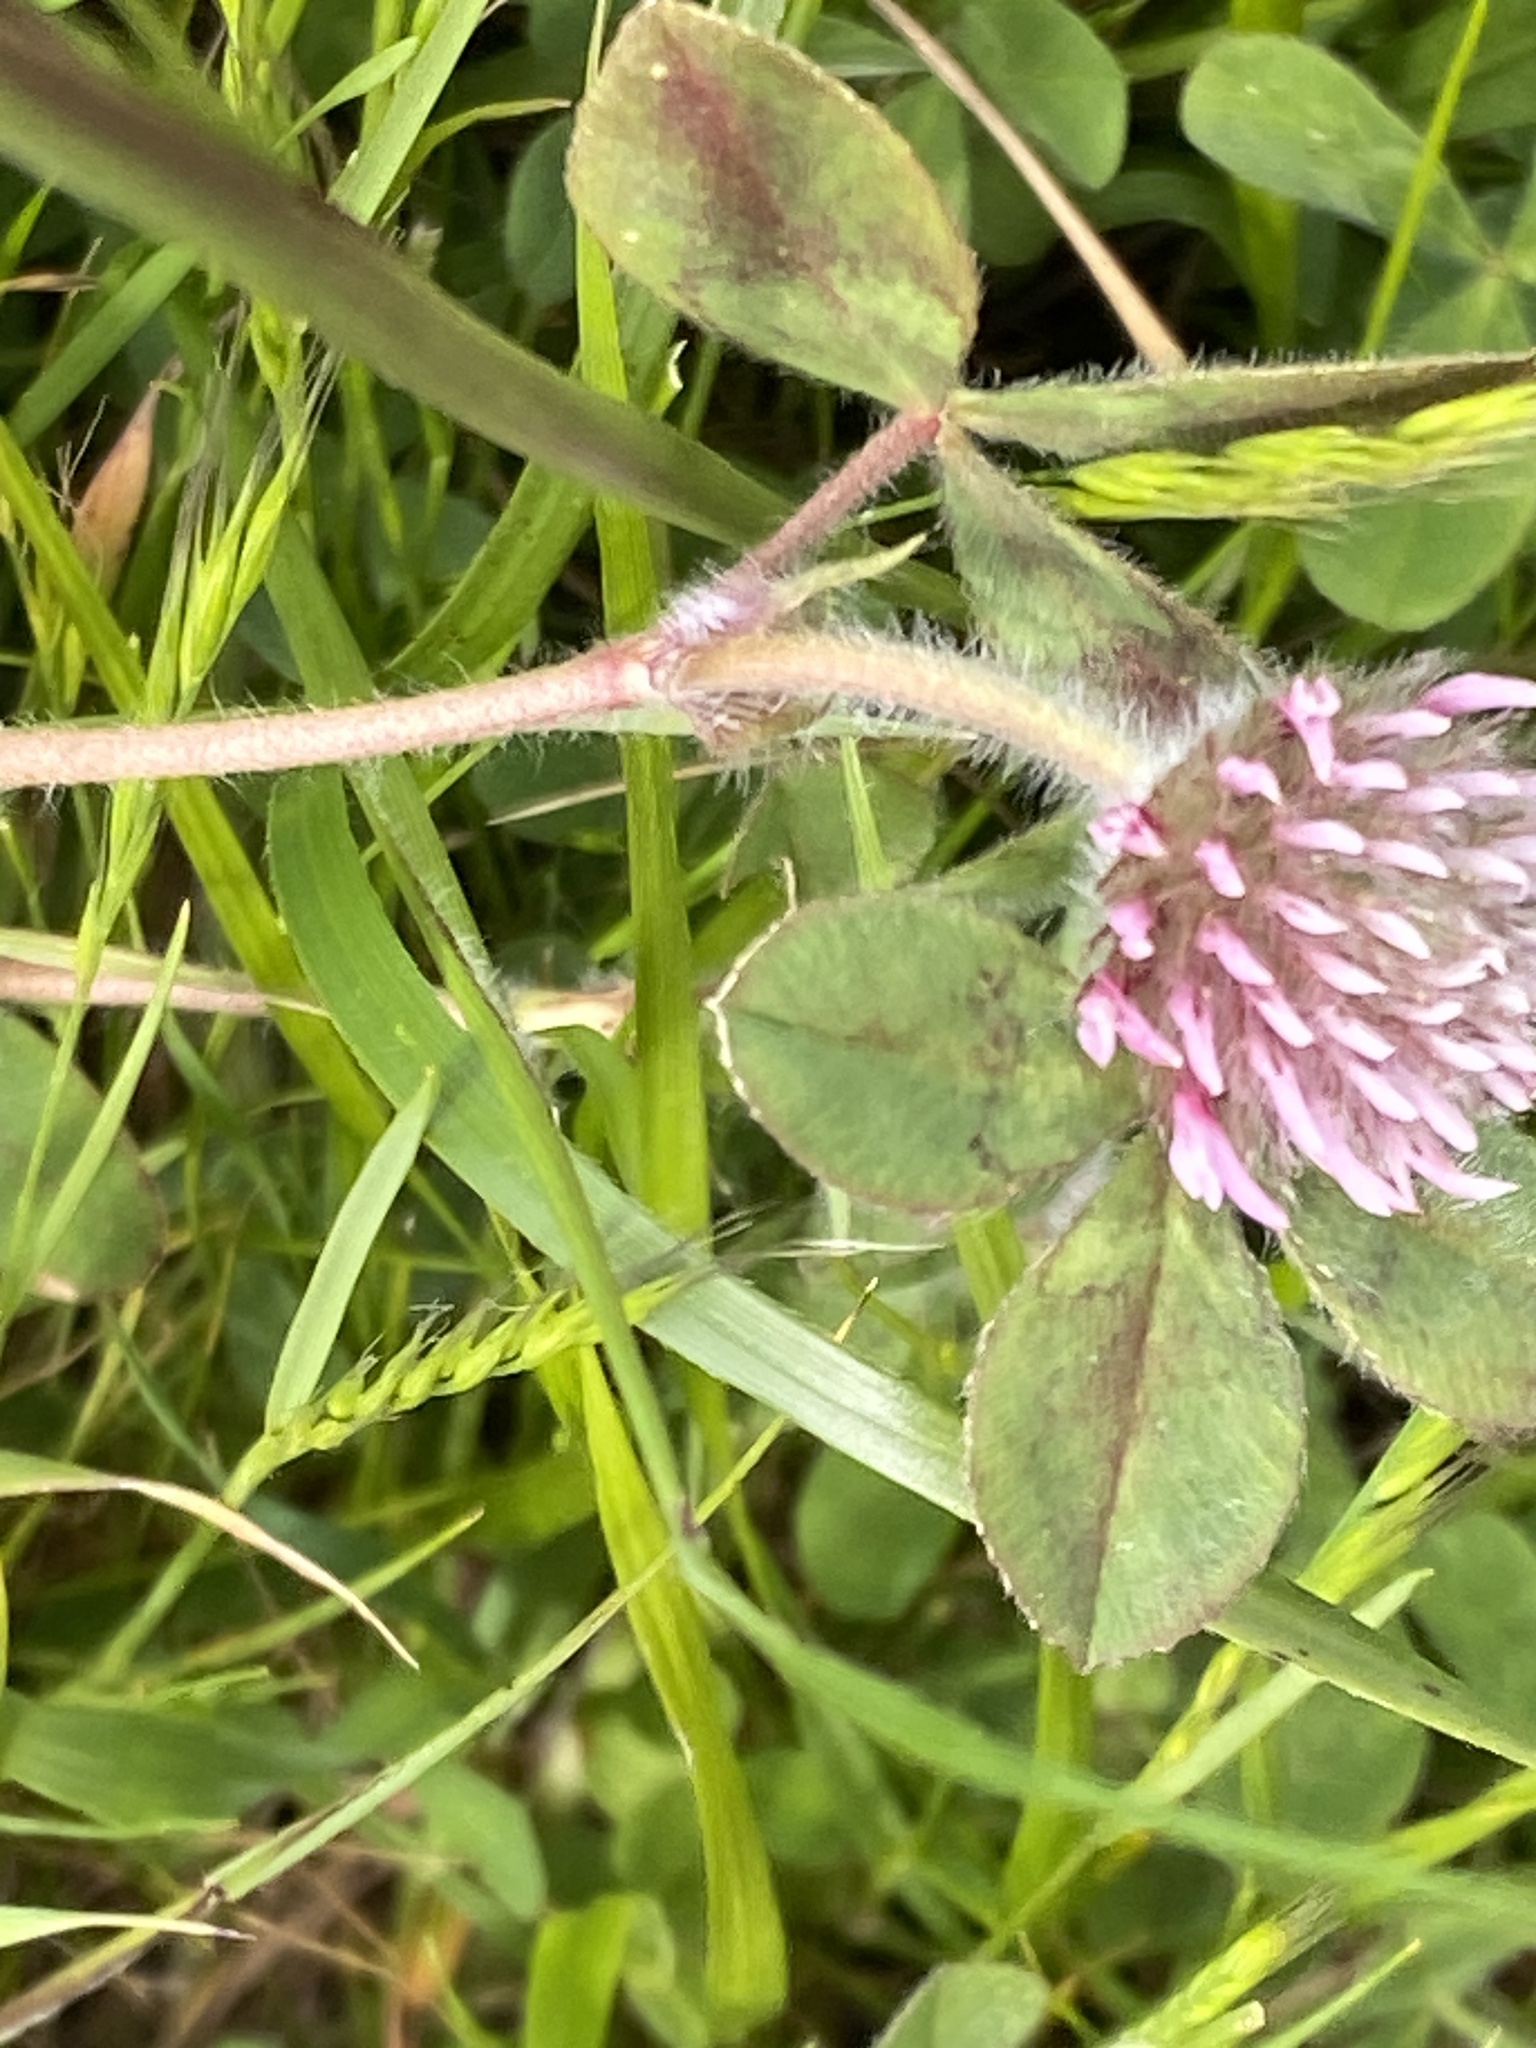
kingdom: Plantae
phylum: Tracheophyta
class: Magnoliopsida
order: Fabales
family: Fabaceae
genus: Trifolium
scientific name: Trifolium hirtum
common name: Rose clover
